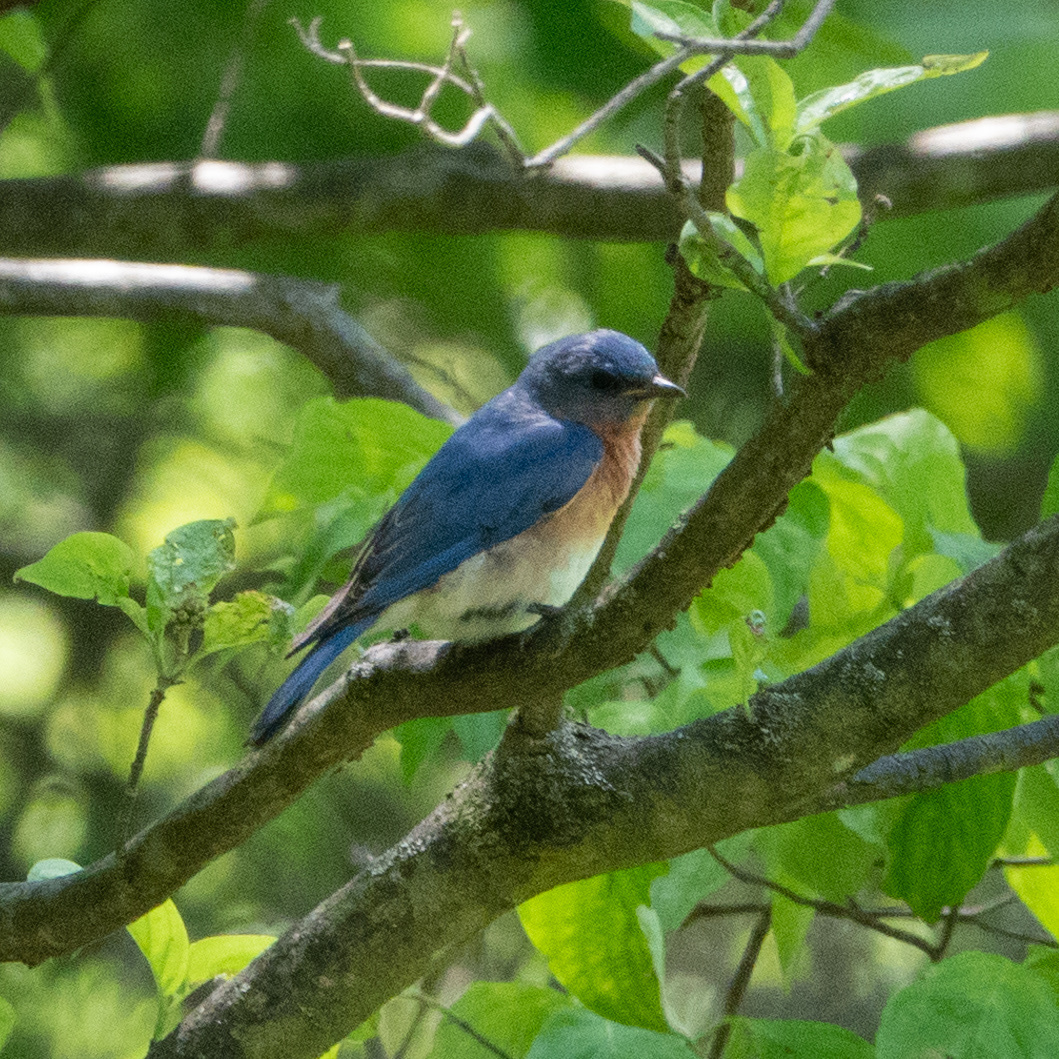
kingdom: Animalia
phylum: Chordata
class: Aves
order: Passeriformes
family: Turdidae
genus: Sialia
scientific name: Sialia sialis
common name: Eastern bluebird
